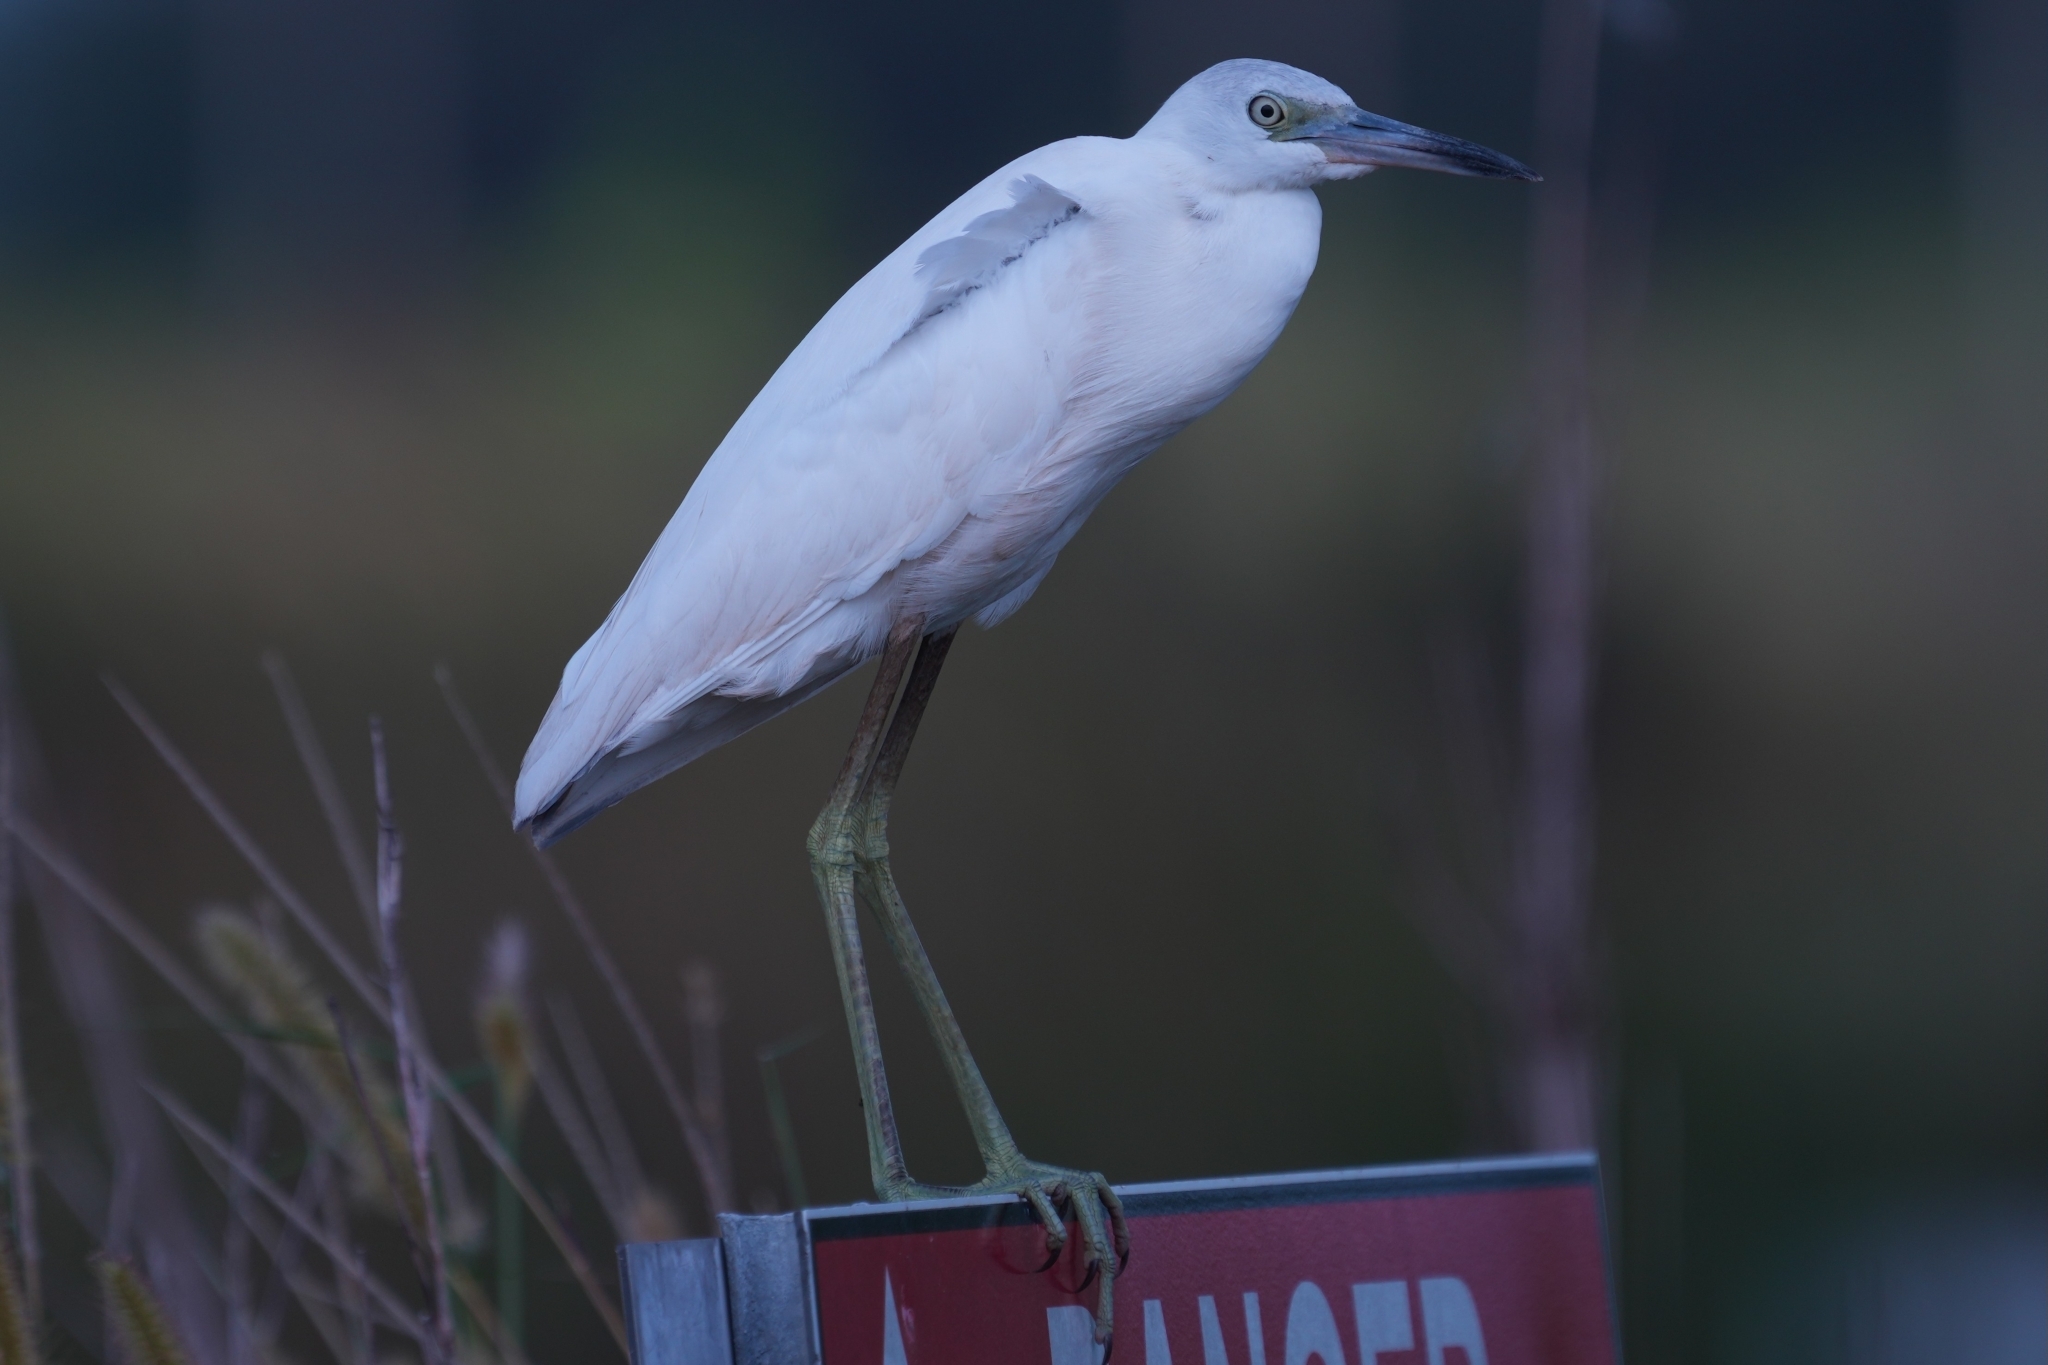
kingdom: Animalia
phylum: Chordata
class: Aves
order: Pelecaniformes
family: Ardeidae
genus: Egretta
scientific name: Egretta caerulea
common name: Little blue heron
